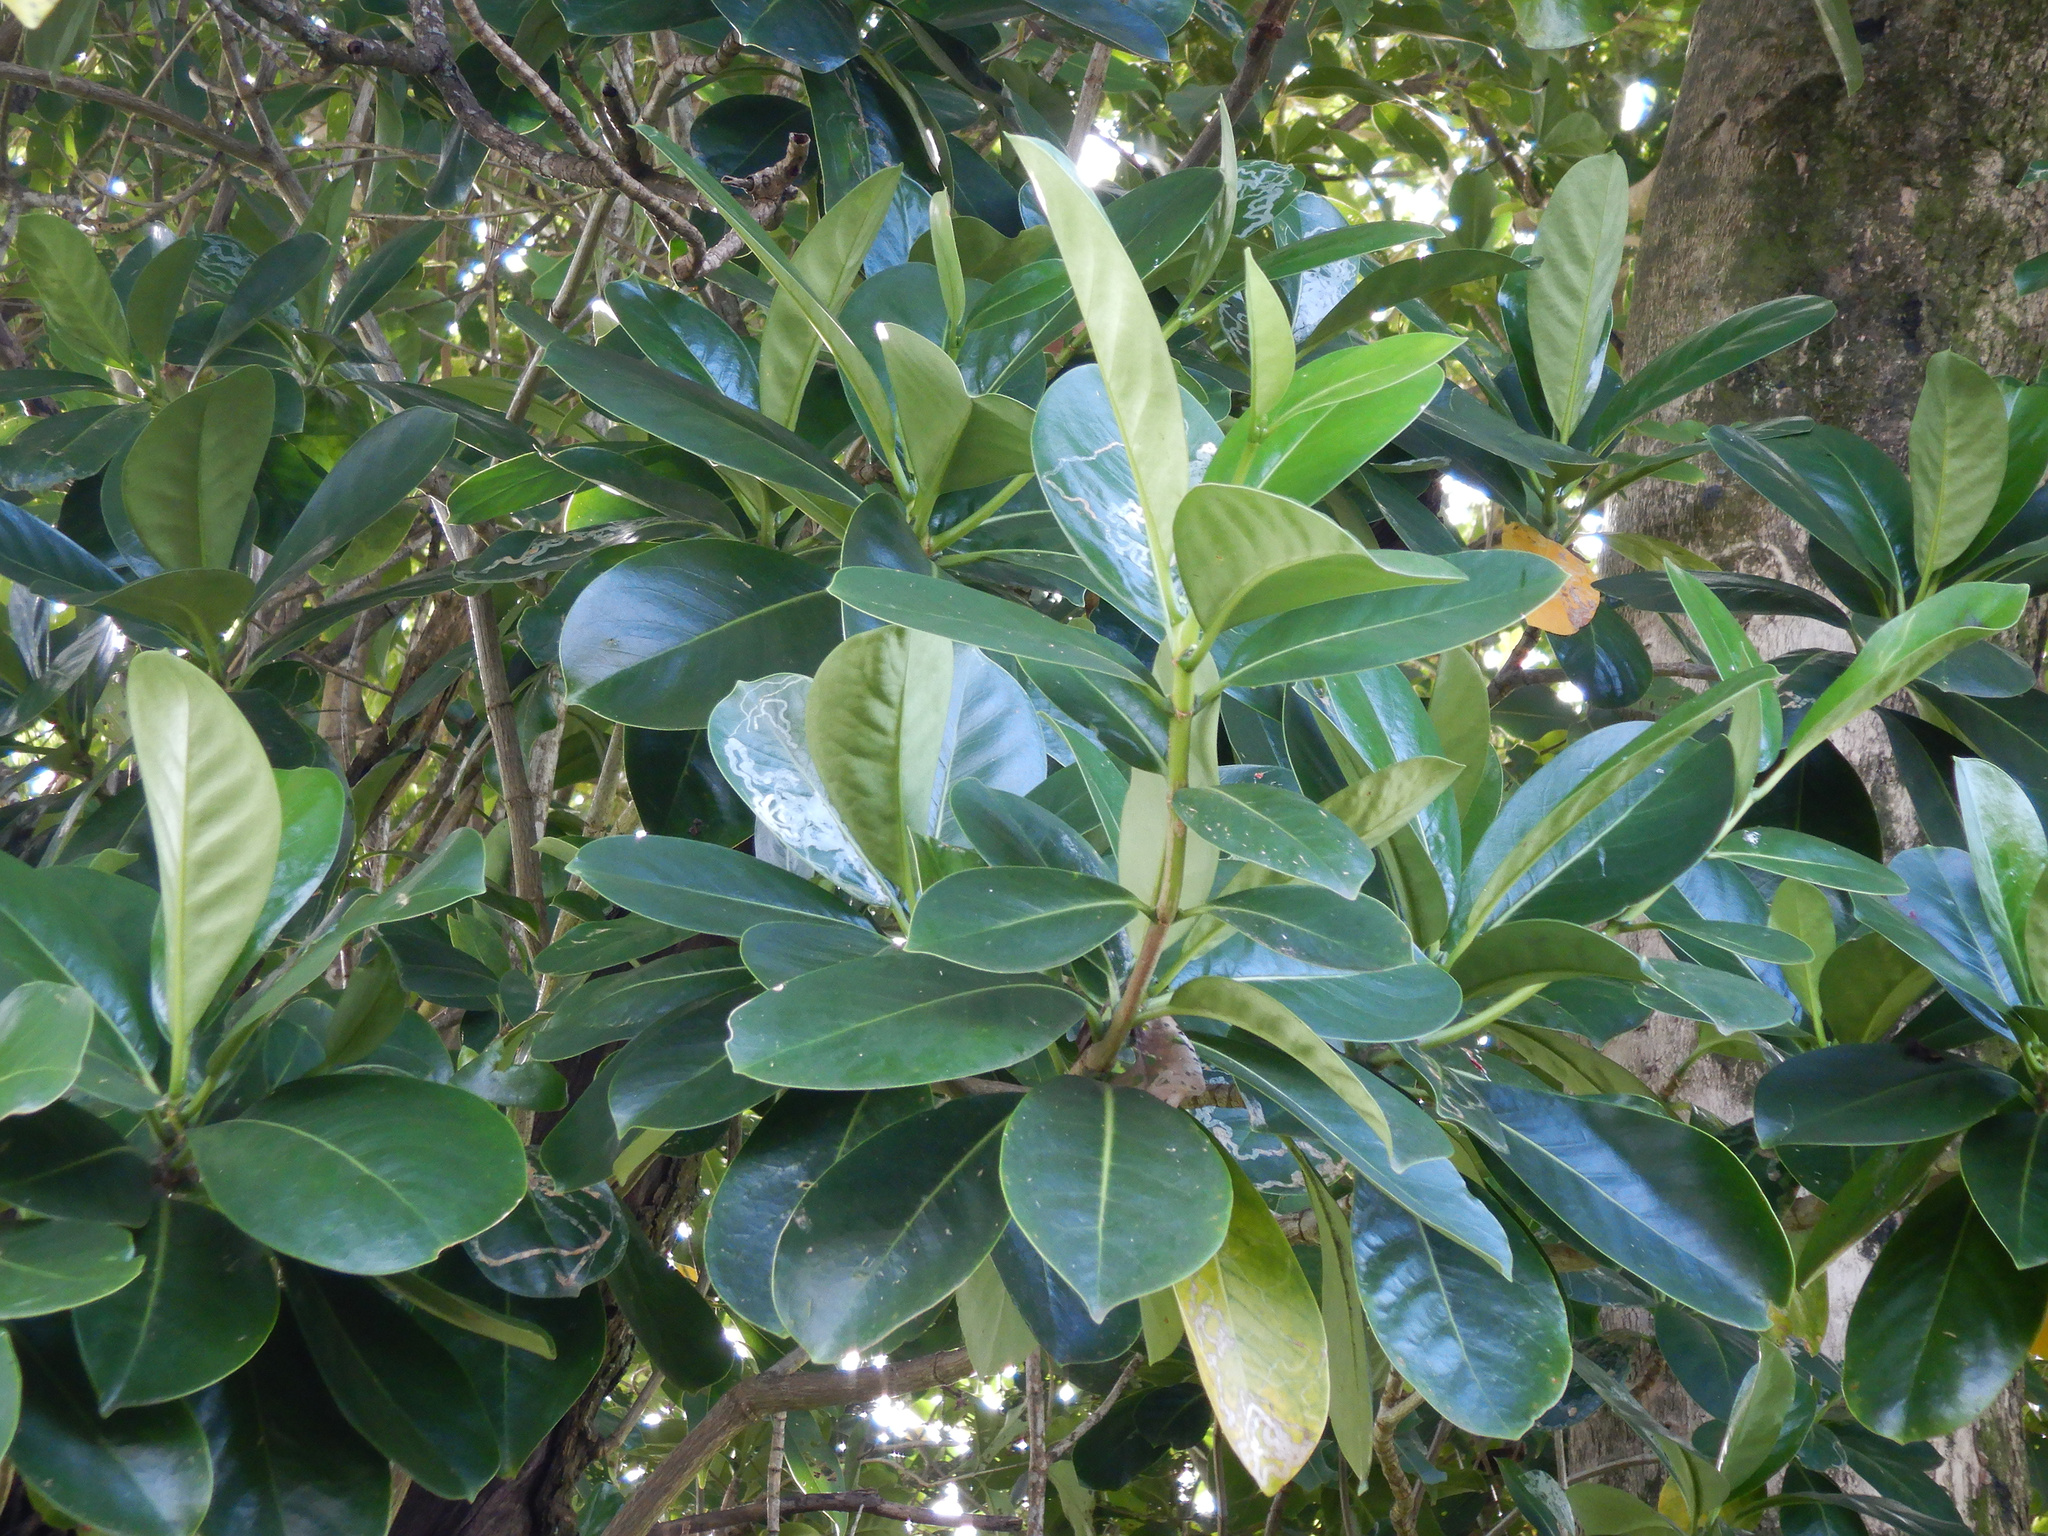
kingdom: Plantae
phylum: Tracheophyta
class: Magnoliopsida
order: Gentianales
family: Gentianaceae
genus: Fagraea
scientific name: Fagraea berteroana
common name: Cape jitta
